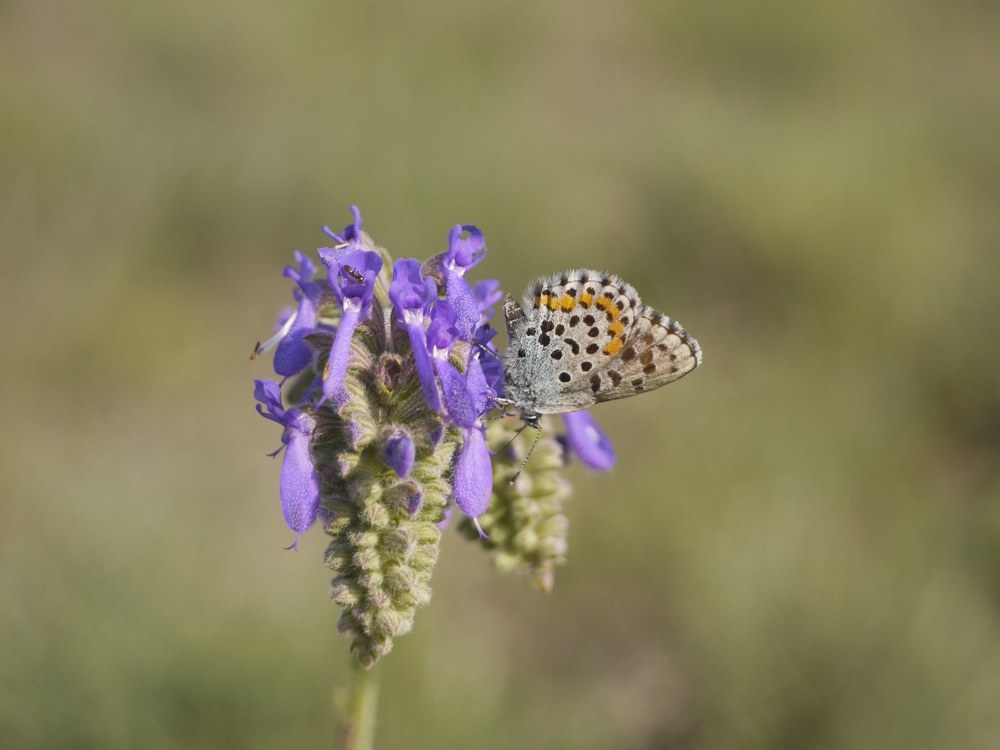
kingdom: Animalia
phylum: Arthropoda
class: Insecta
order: Lepidoptera
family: Lycaenidae
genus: Pseudophilotes
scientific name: Pseudophilotes bavius
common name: Bavius blue
